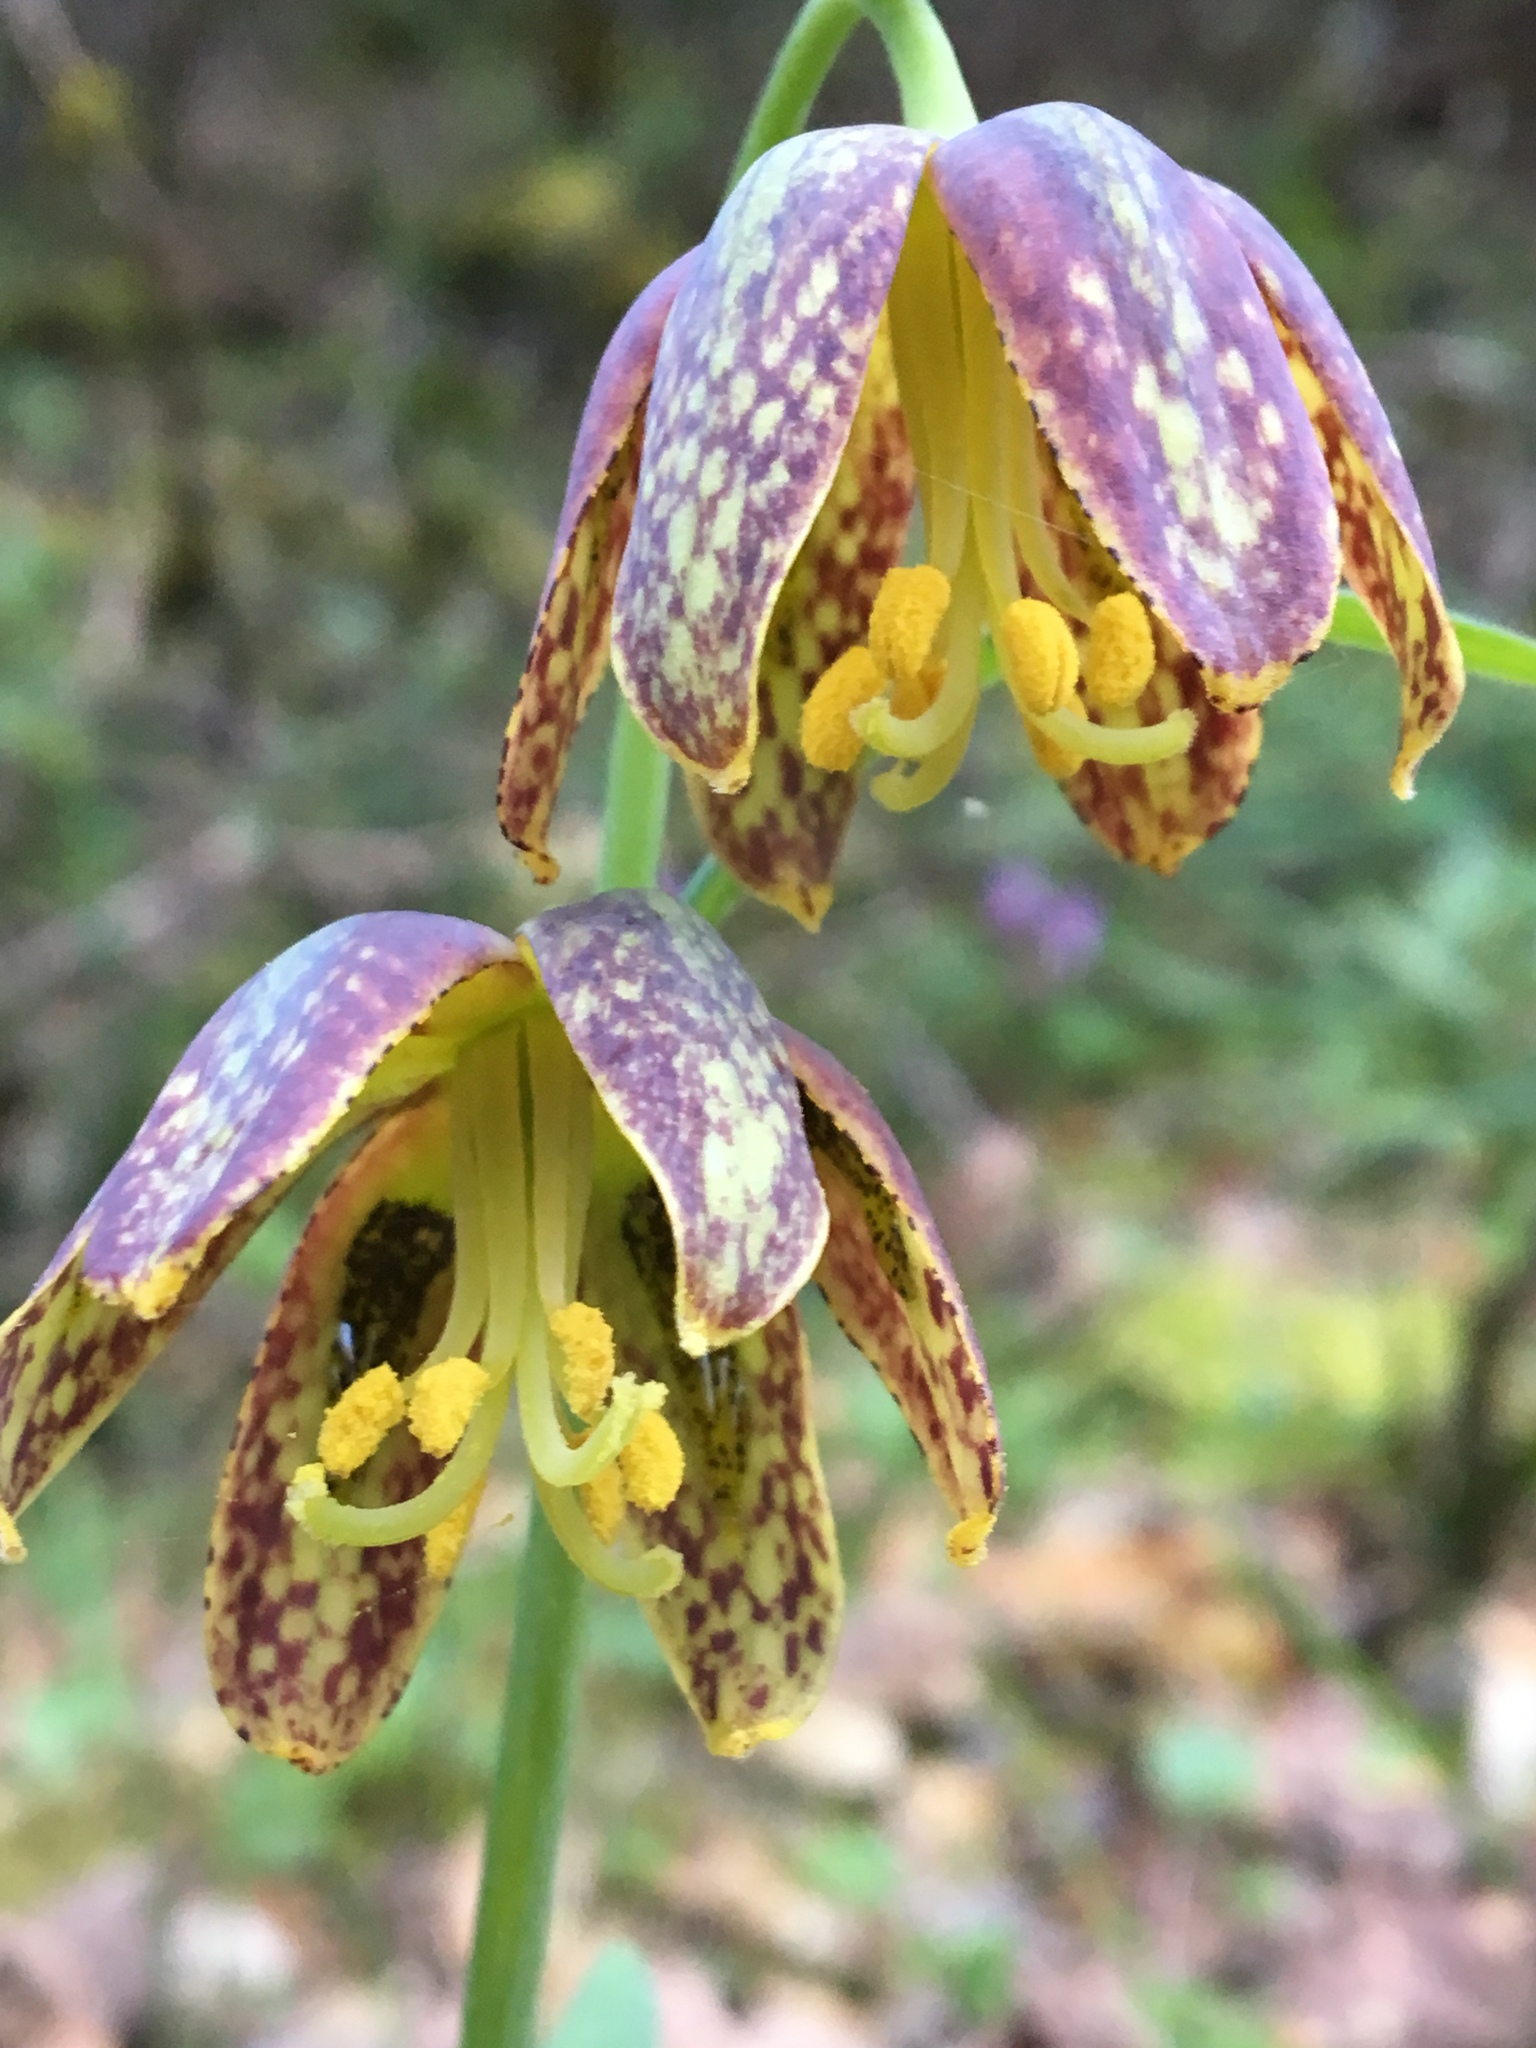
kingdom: Plantae
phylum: Tracheophyta
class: Liliopsida
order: Liliales
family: Liliaceae
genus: Fritillaria
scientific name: Fritillaria affinis
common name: Ojai fritillary
